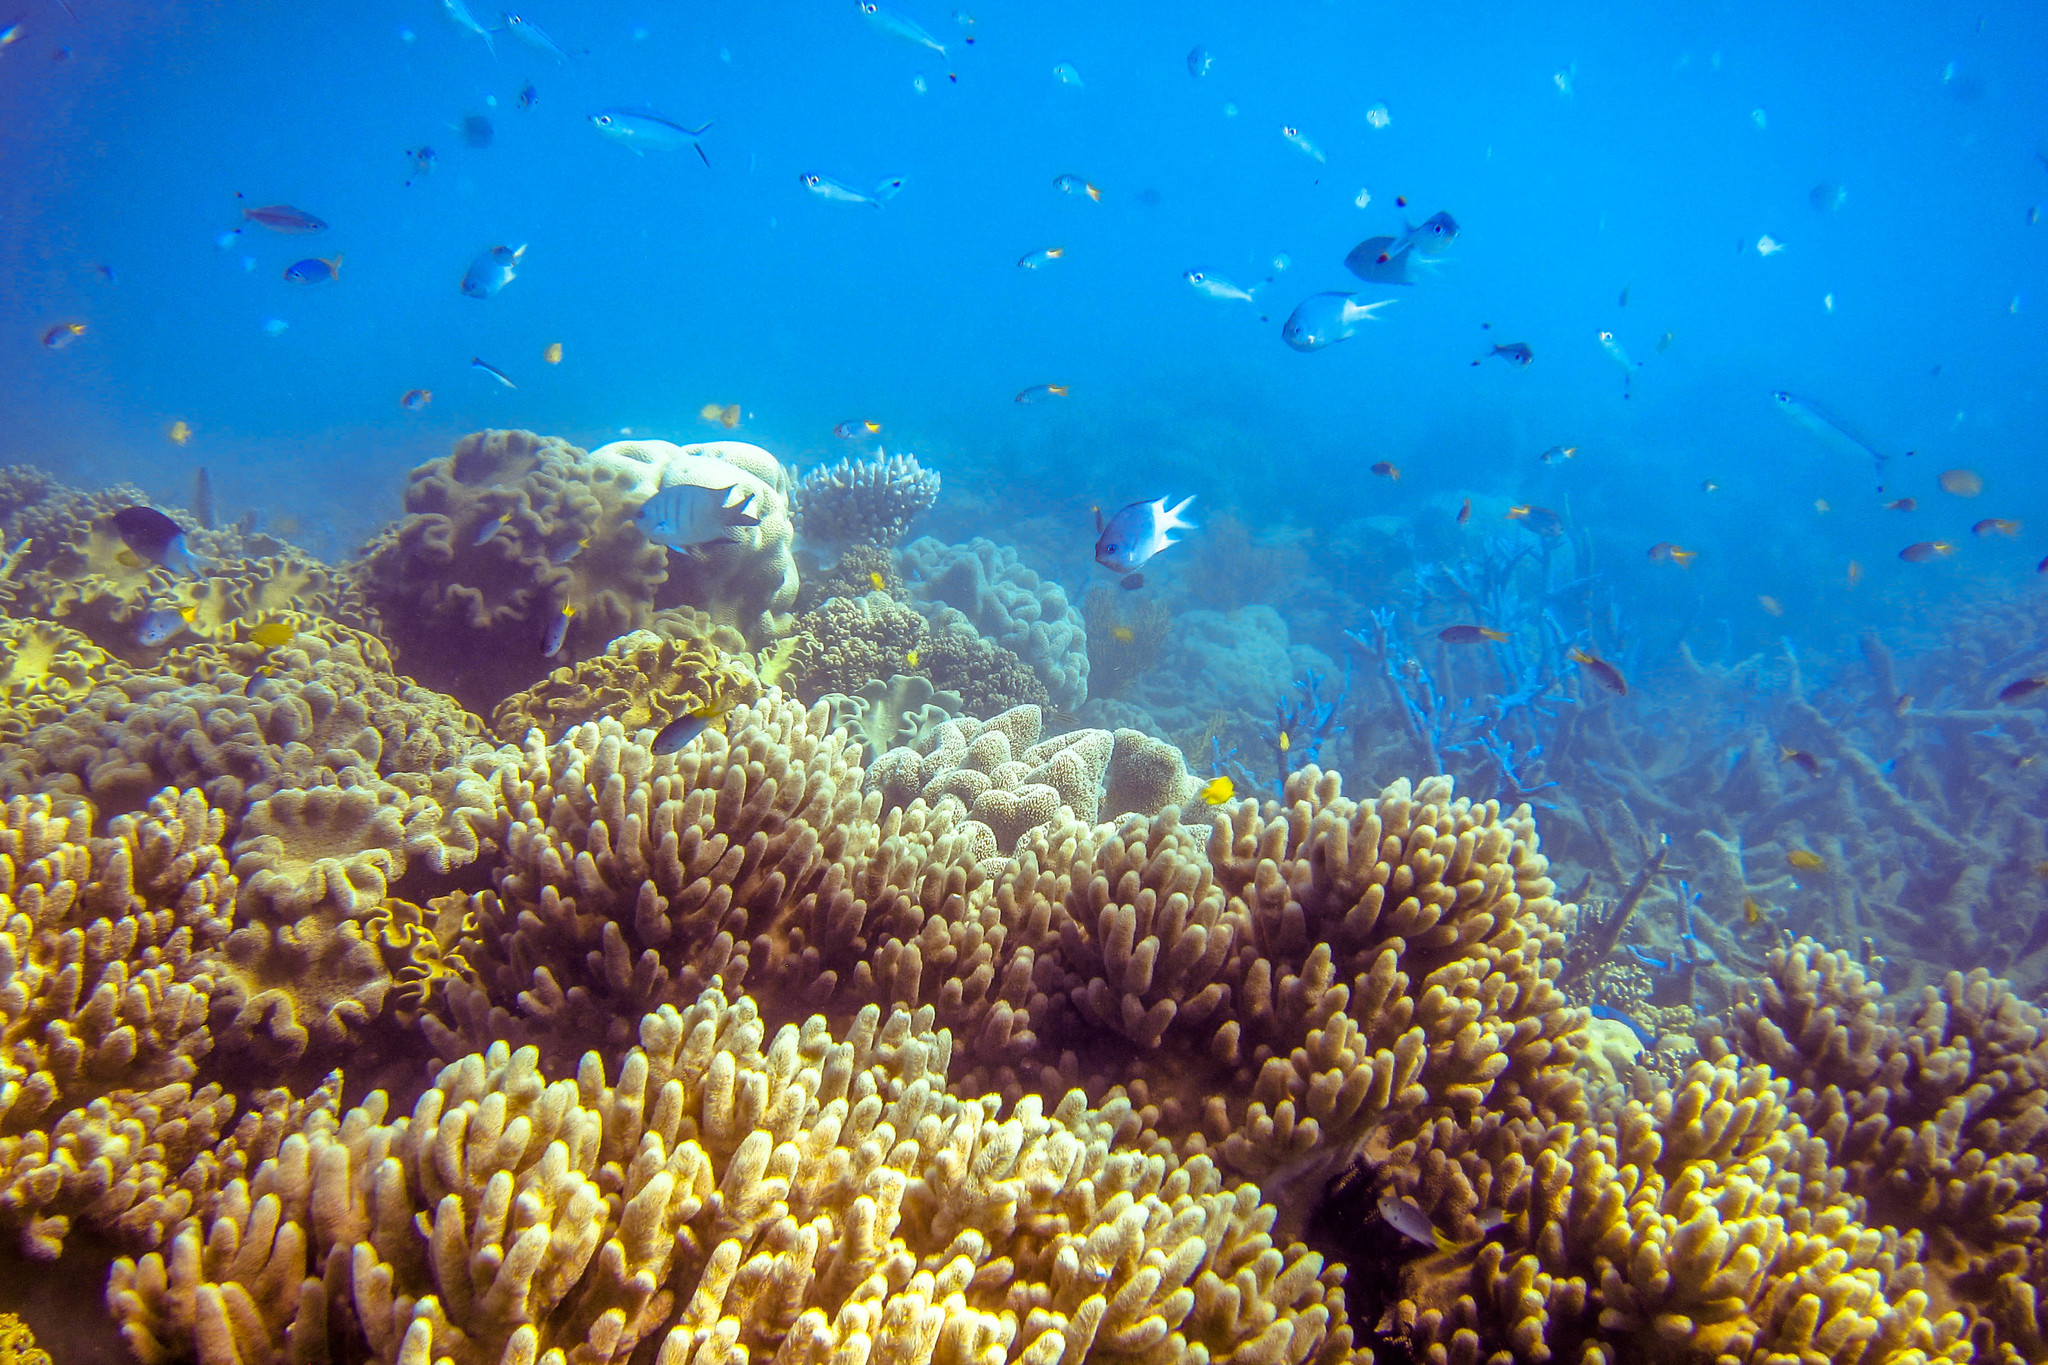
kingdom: Animalia
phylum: Chordata
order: Perciformes
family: Pomacentridae
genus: Abudefduf
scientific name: Abudefduf whitleyi
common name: Whitley's seargent
